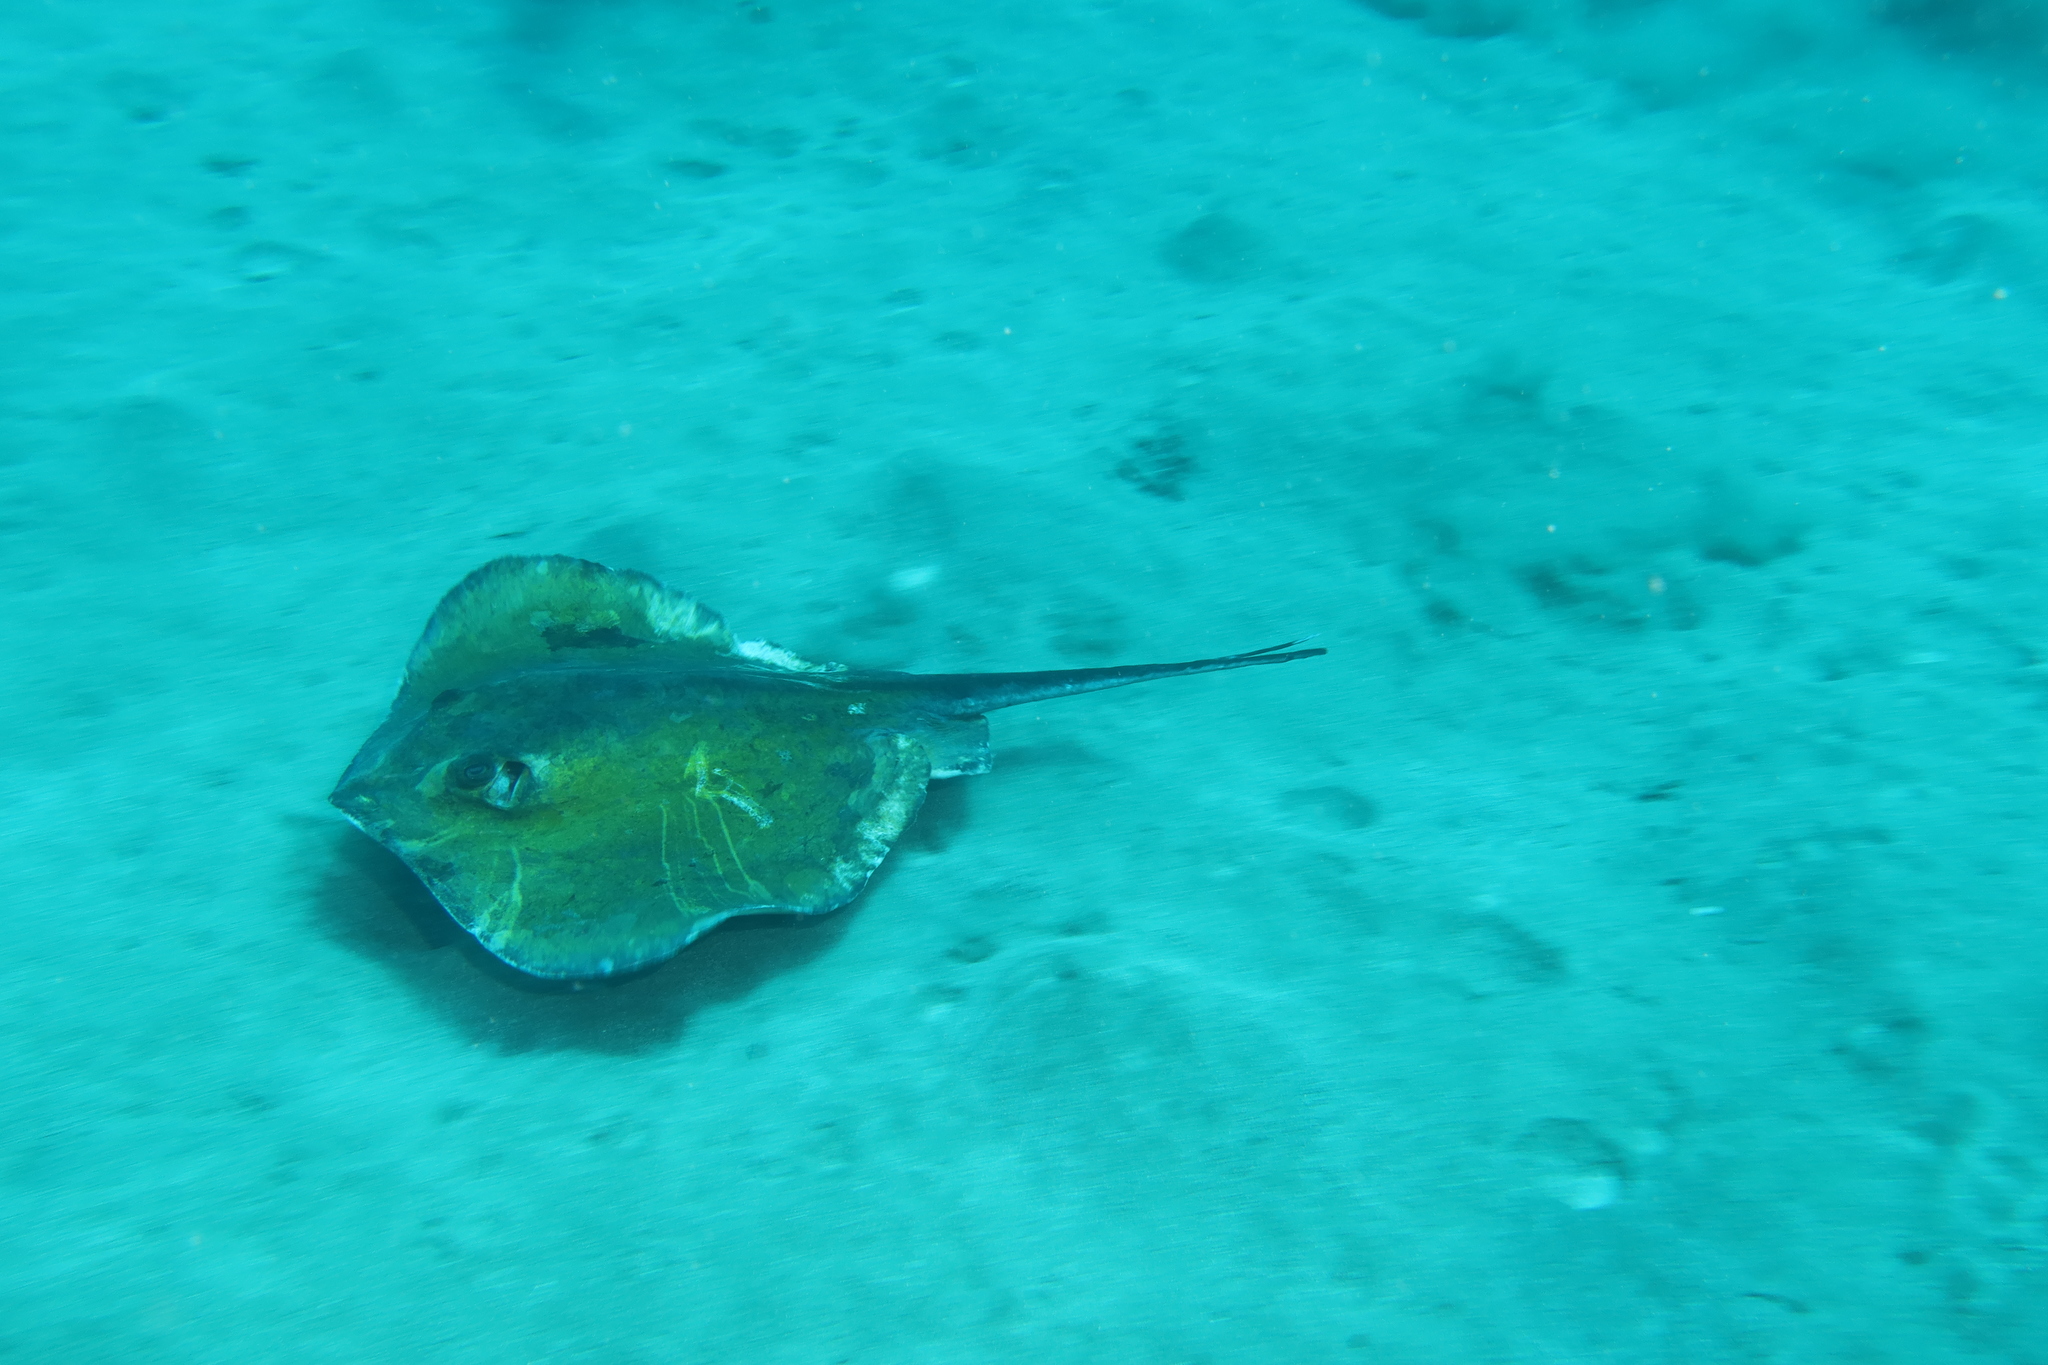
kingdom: Animalia
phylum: Chordata
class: Elasmobranchii
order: Myliobatiformes
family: Dasyatidae
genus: Dasyatis
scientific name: Dasyatis tortonesei
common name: Tortonese's stingray
